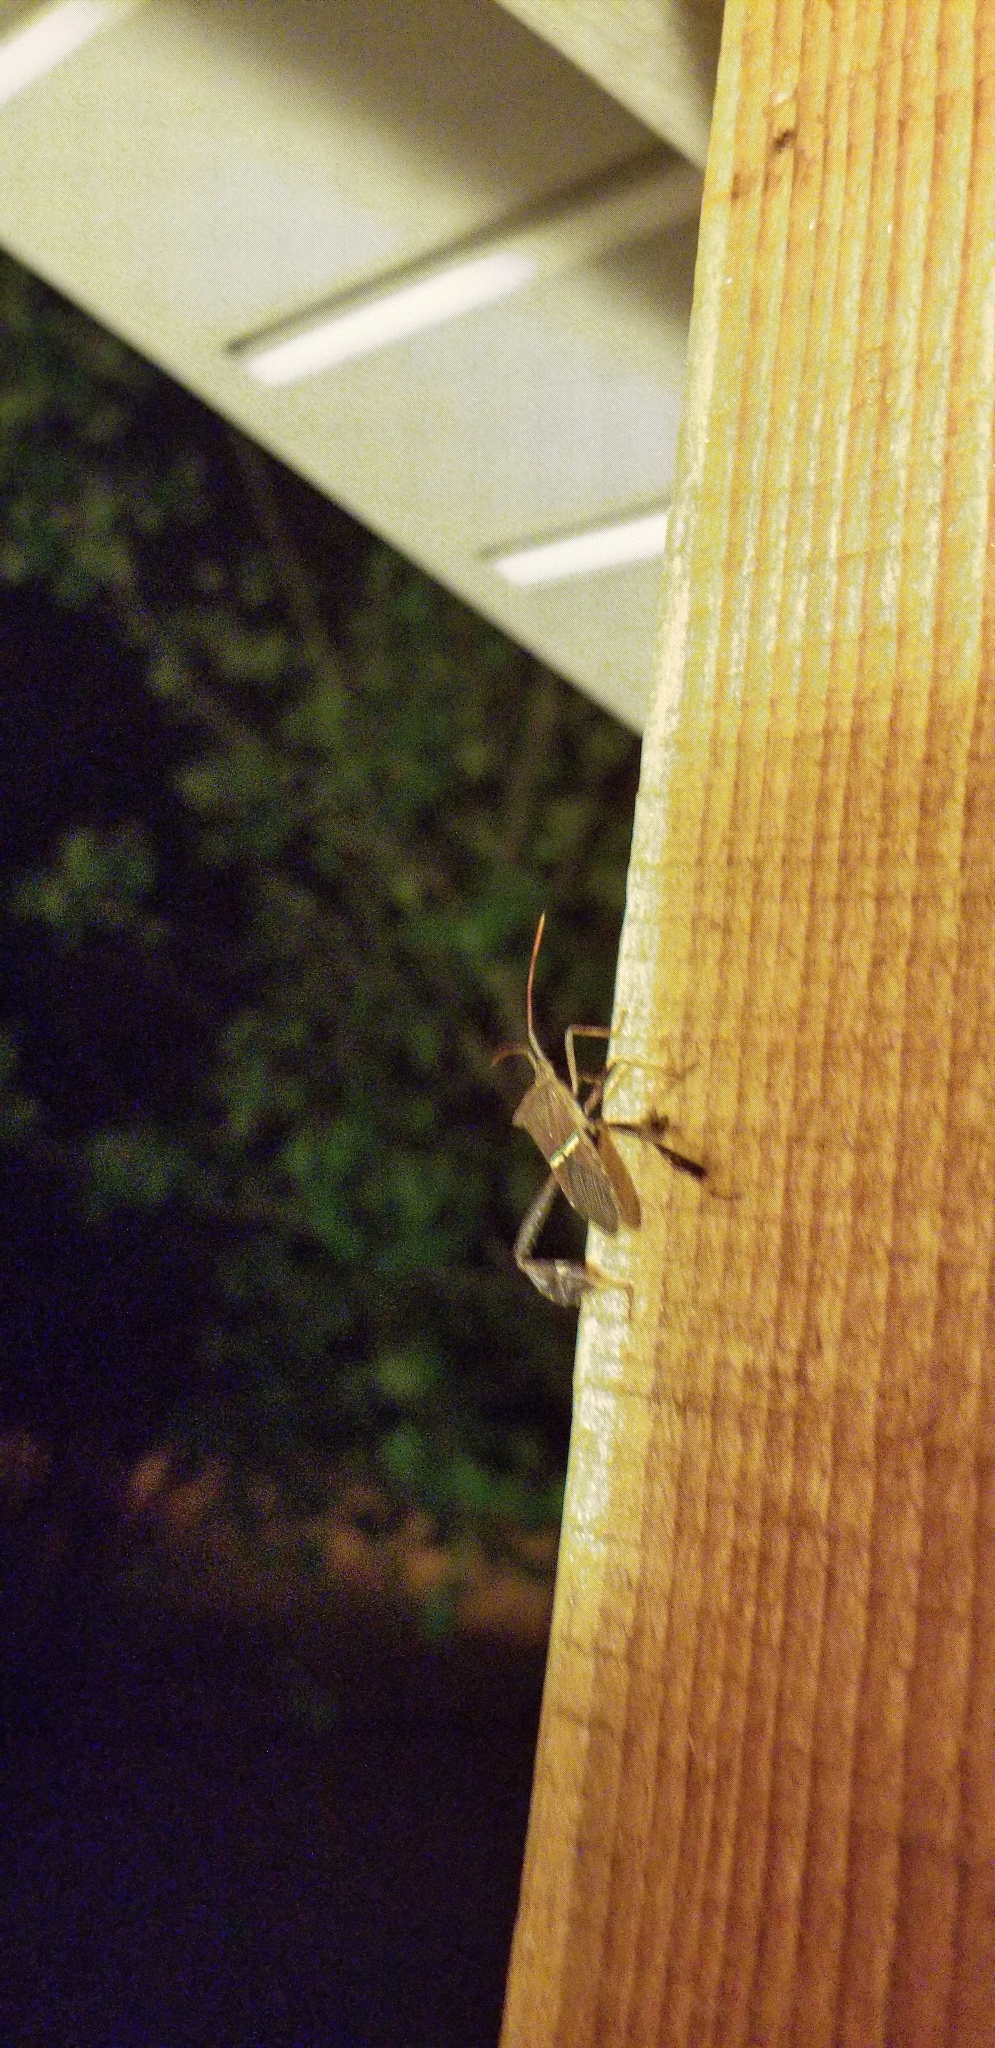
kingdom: Animalia
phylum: Arthropoda
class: Insecta
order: Hemiptera
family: Coreidae
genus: Leptoglossus
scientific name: Leptoglossus phyllopus
